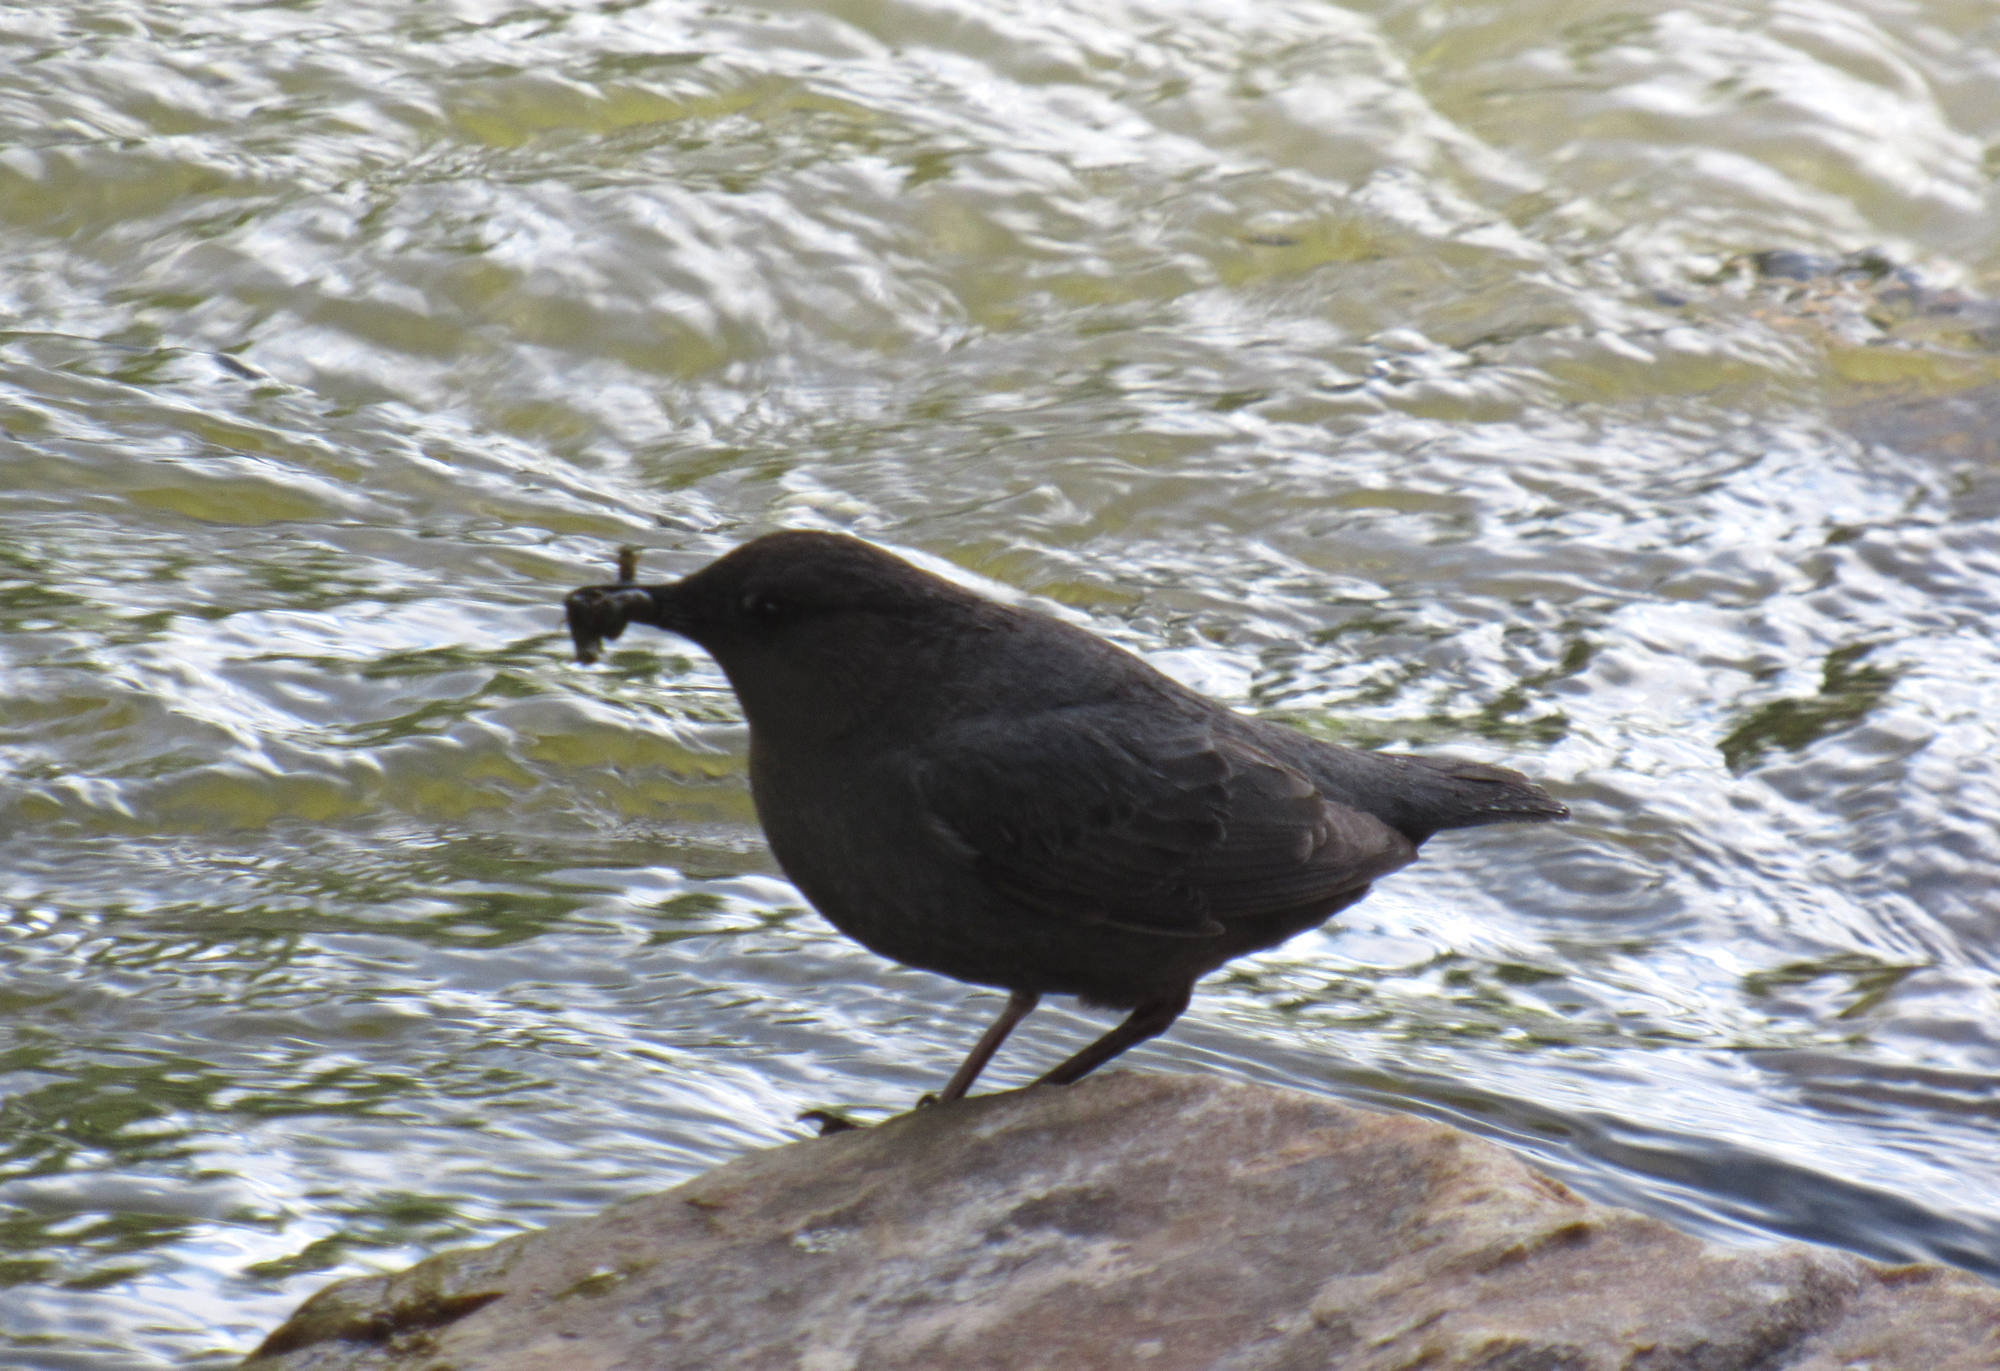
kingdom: Animalia
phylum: Chordata
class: Aves
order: Passeriformes
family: Cinclidae
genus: Cinclus
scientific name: Cinclus mexicanus
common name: American dipper
